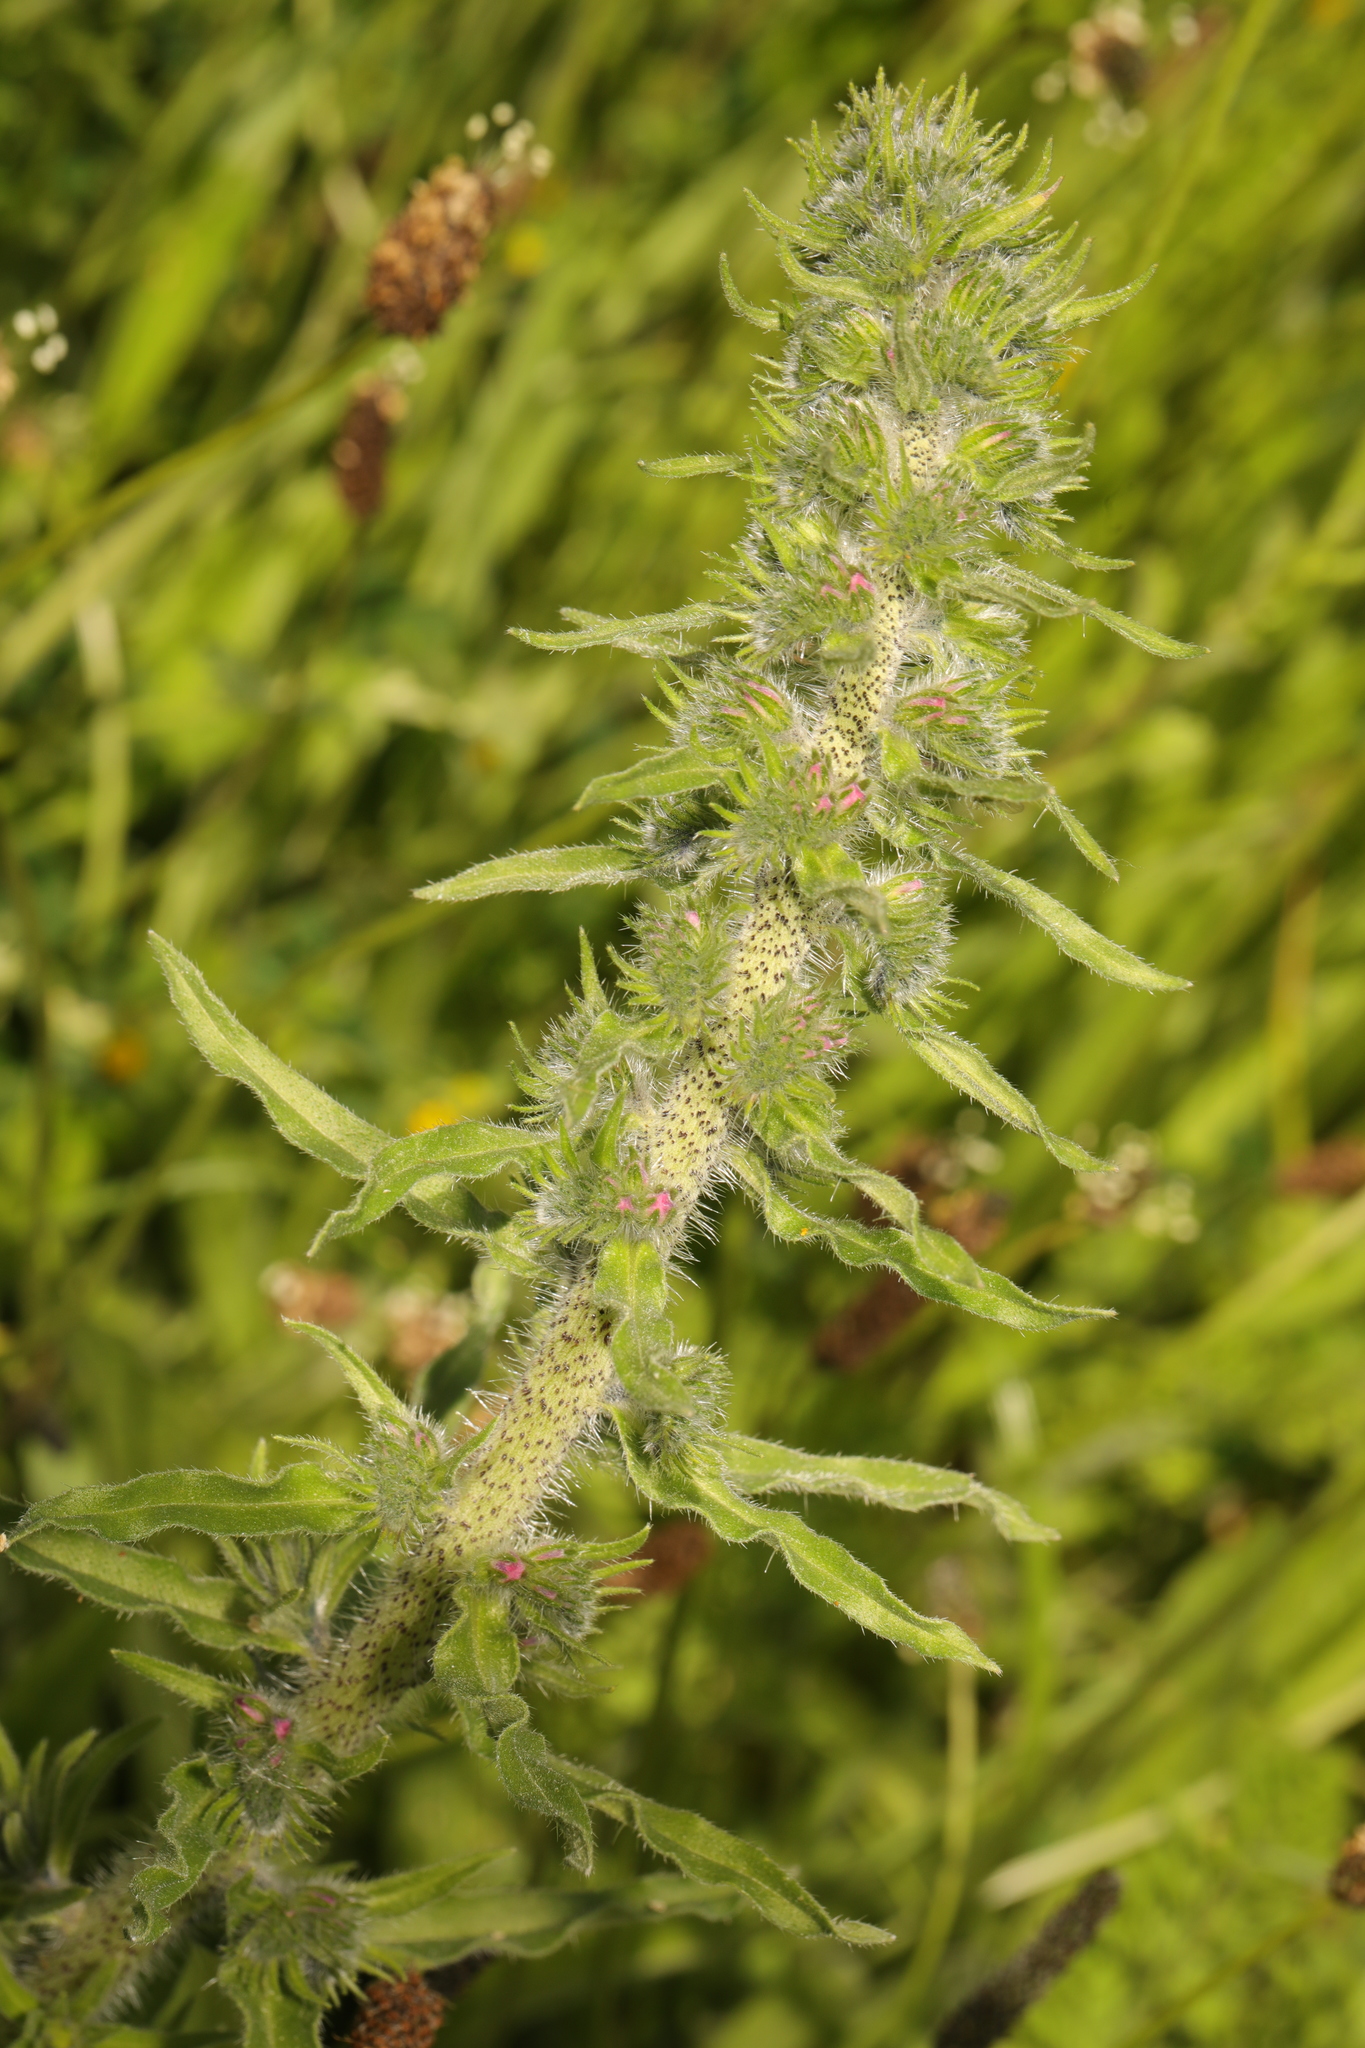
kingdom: Plantae
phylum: Tracheophyta
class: Magnoliopsida
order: Boraginales
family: Boraginaceae
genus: Echium
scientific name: Echium vulgare
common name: Common viper's bugloss
